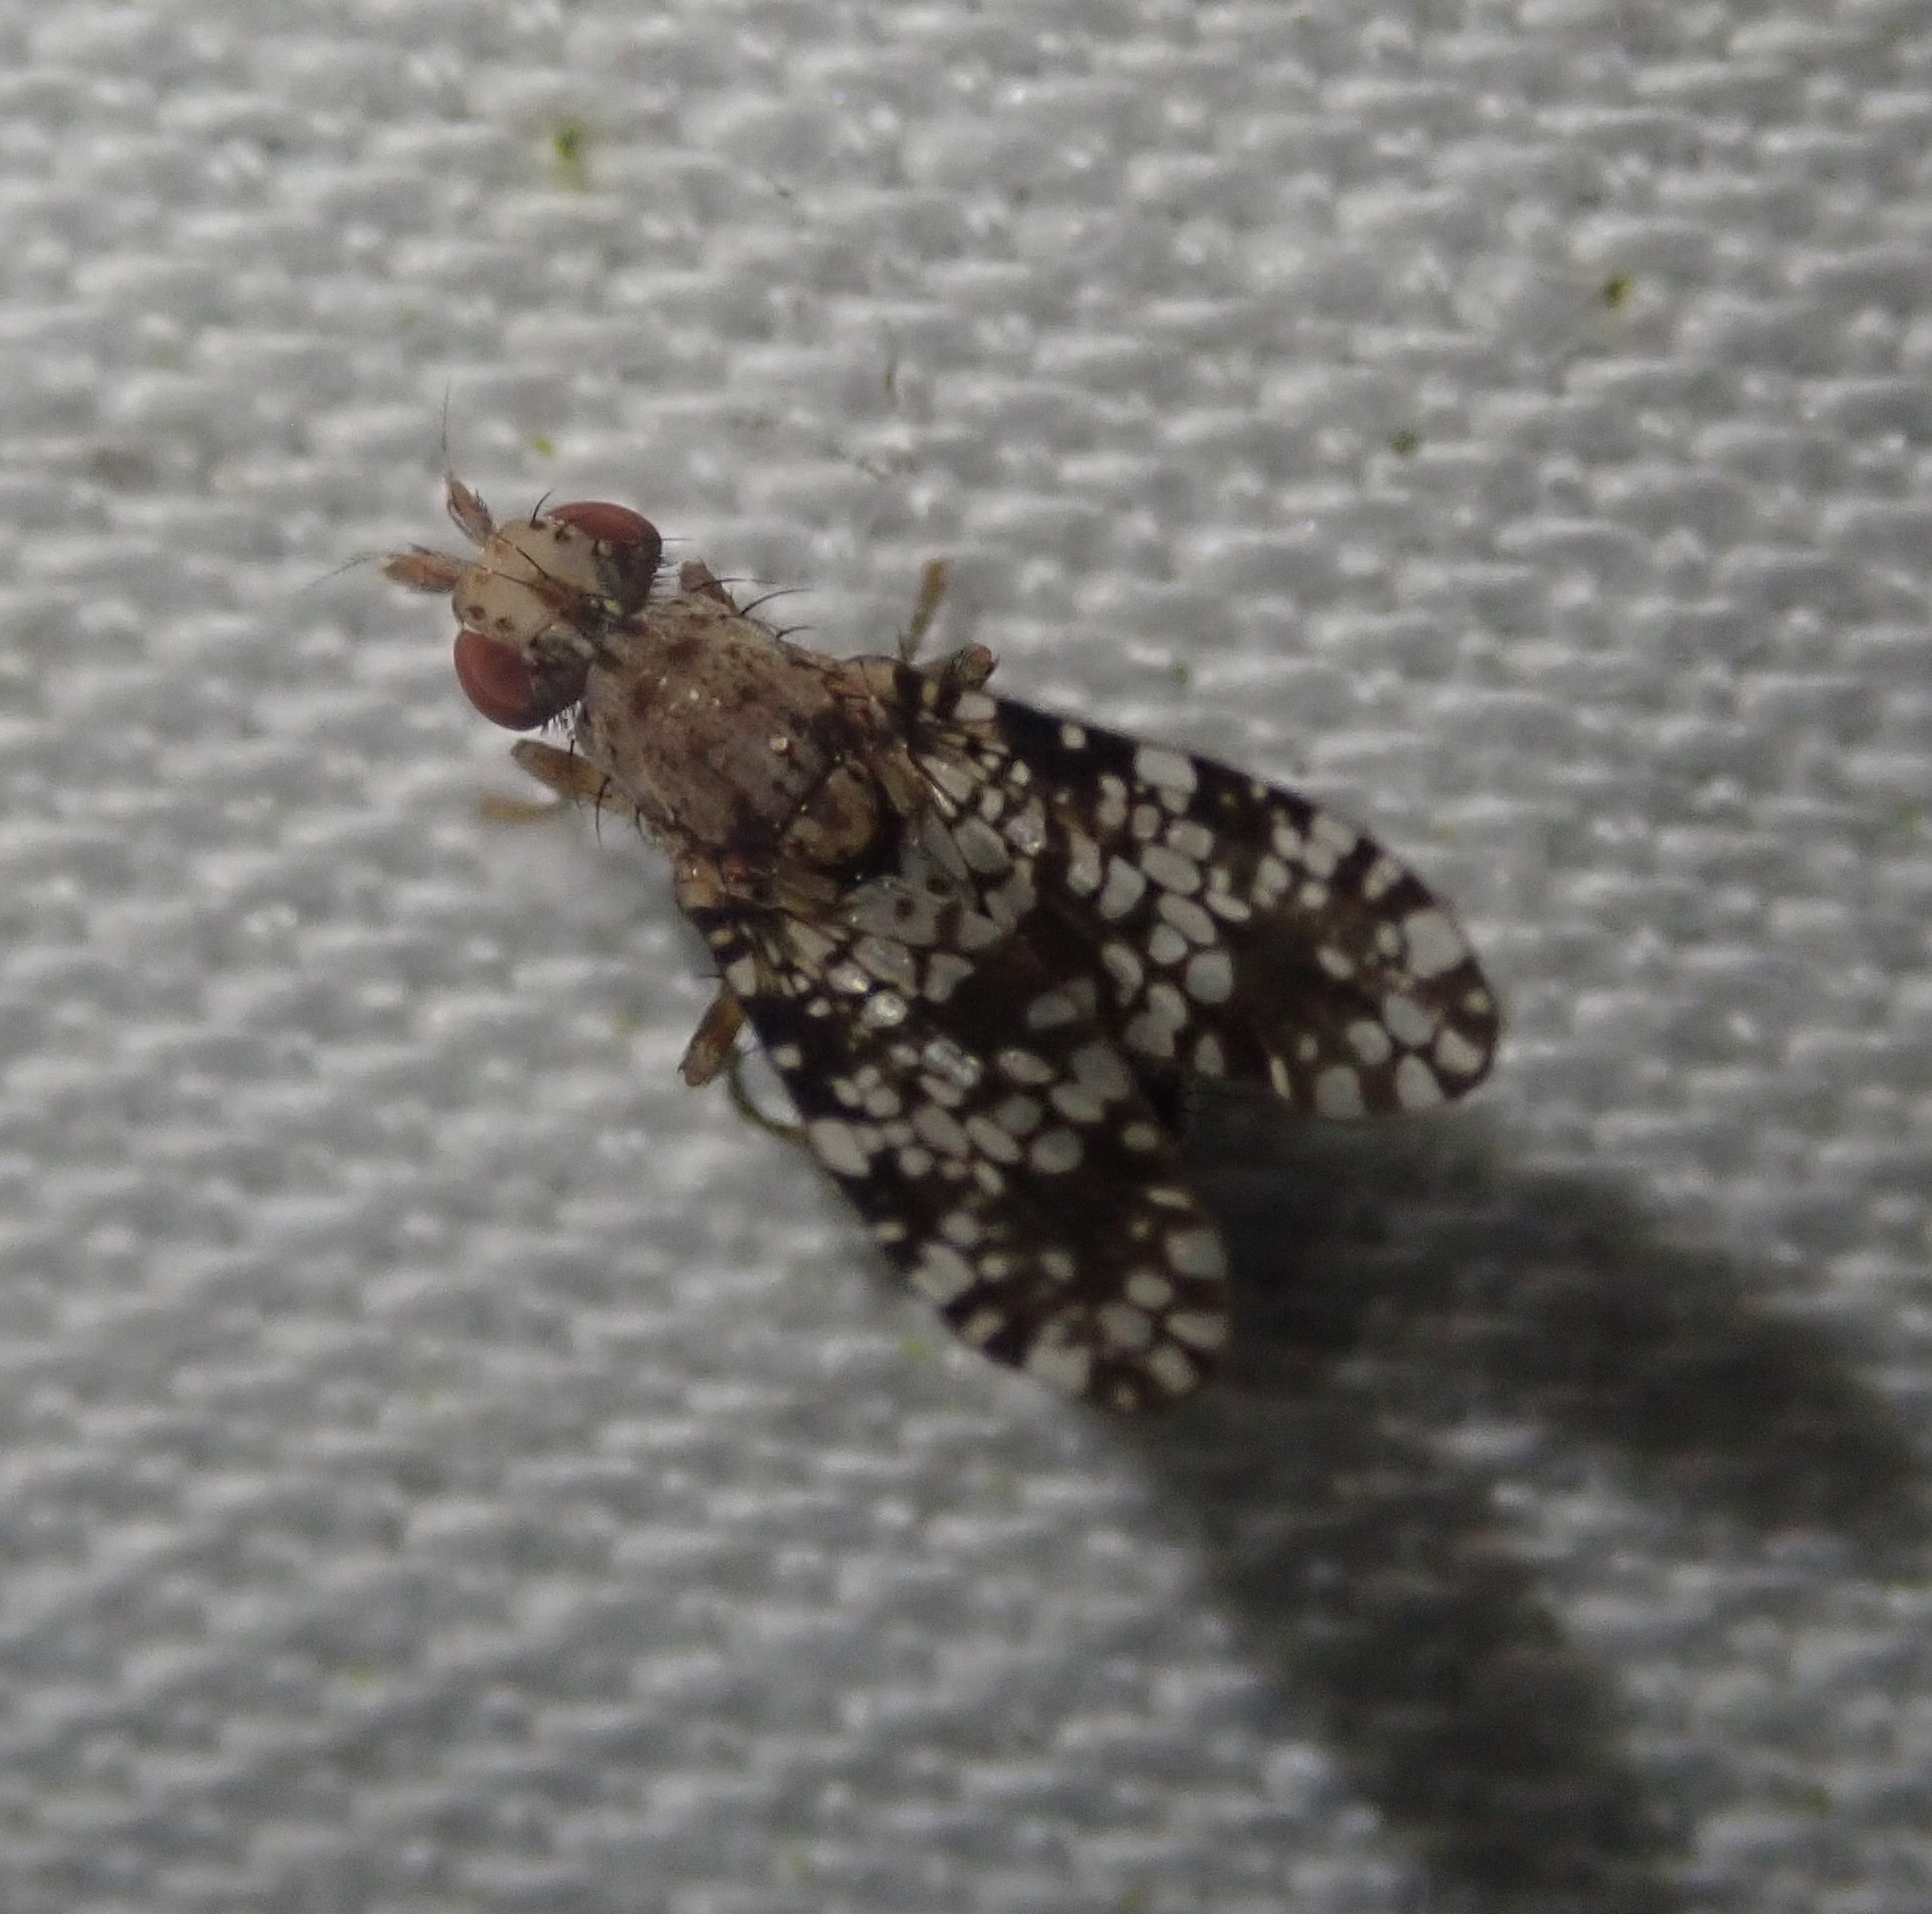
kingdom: Animalia
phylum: Arthropoda
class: Insecta
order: Diptera
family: Sciomyzidae
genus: Trypetoptera
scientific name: Trypetoptera punctulata
